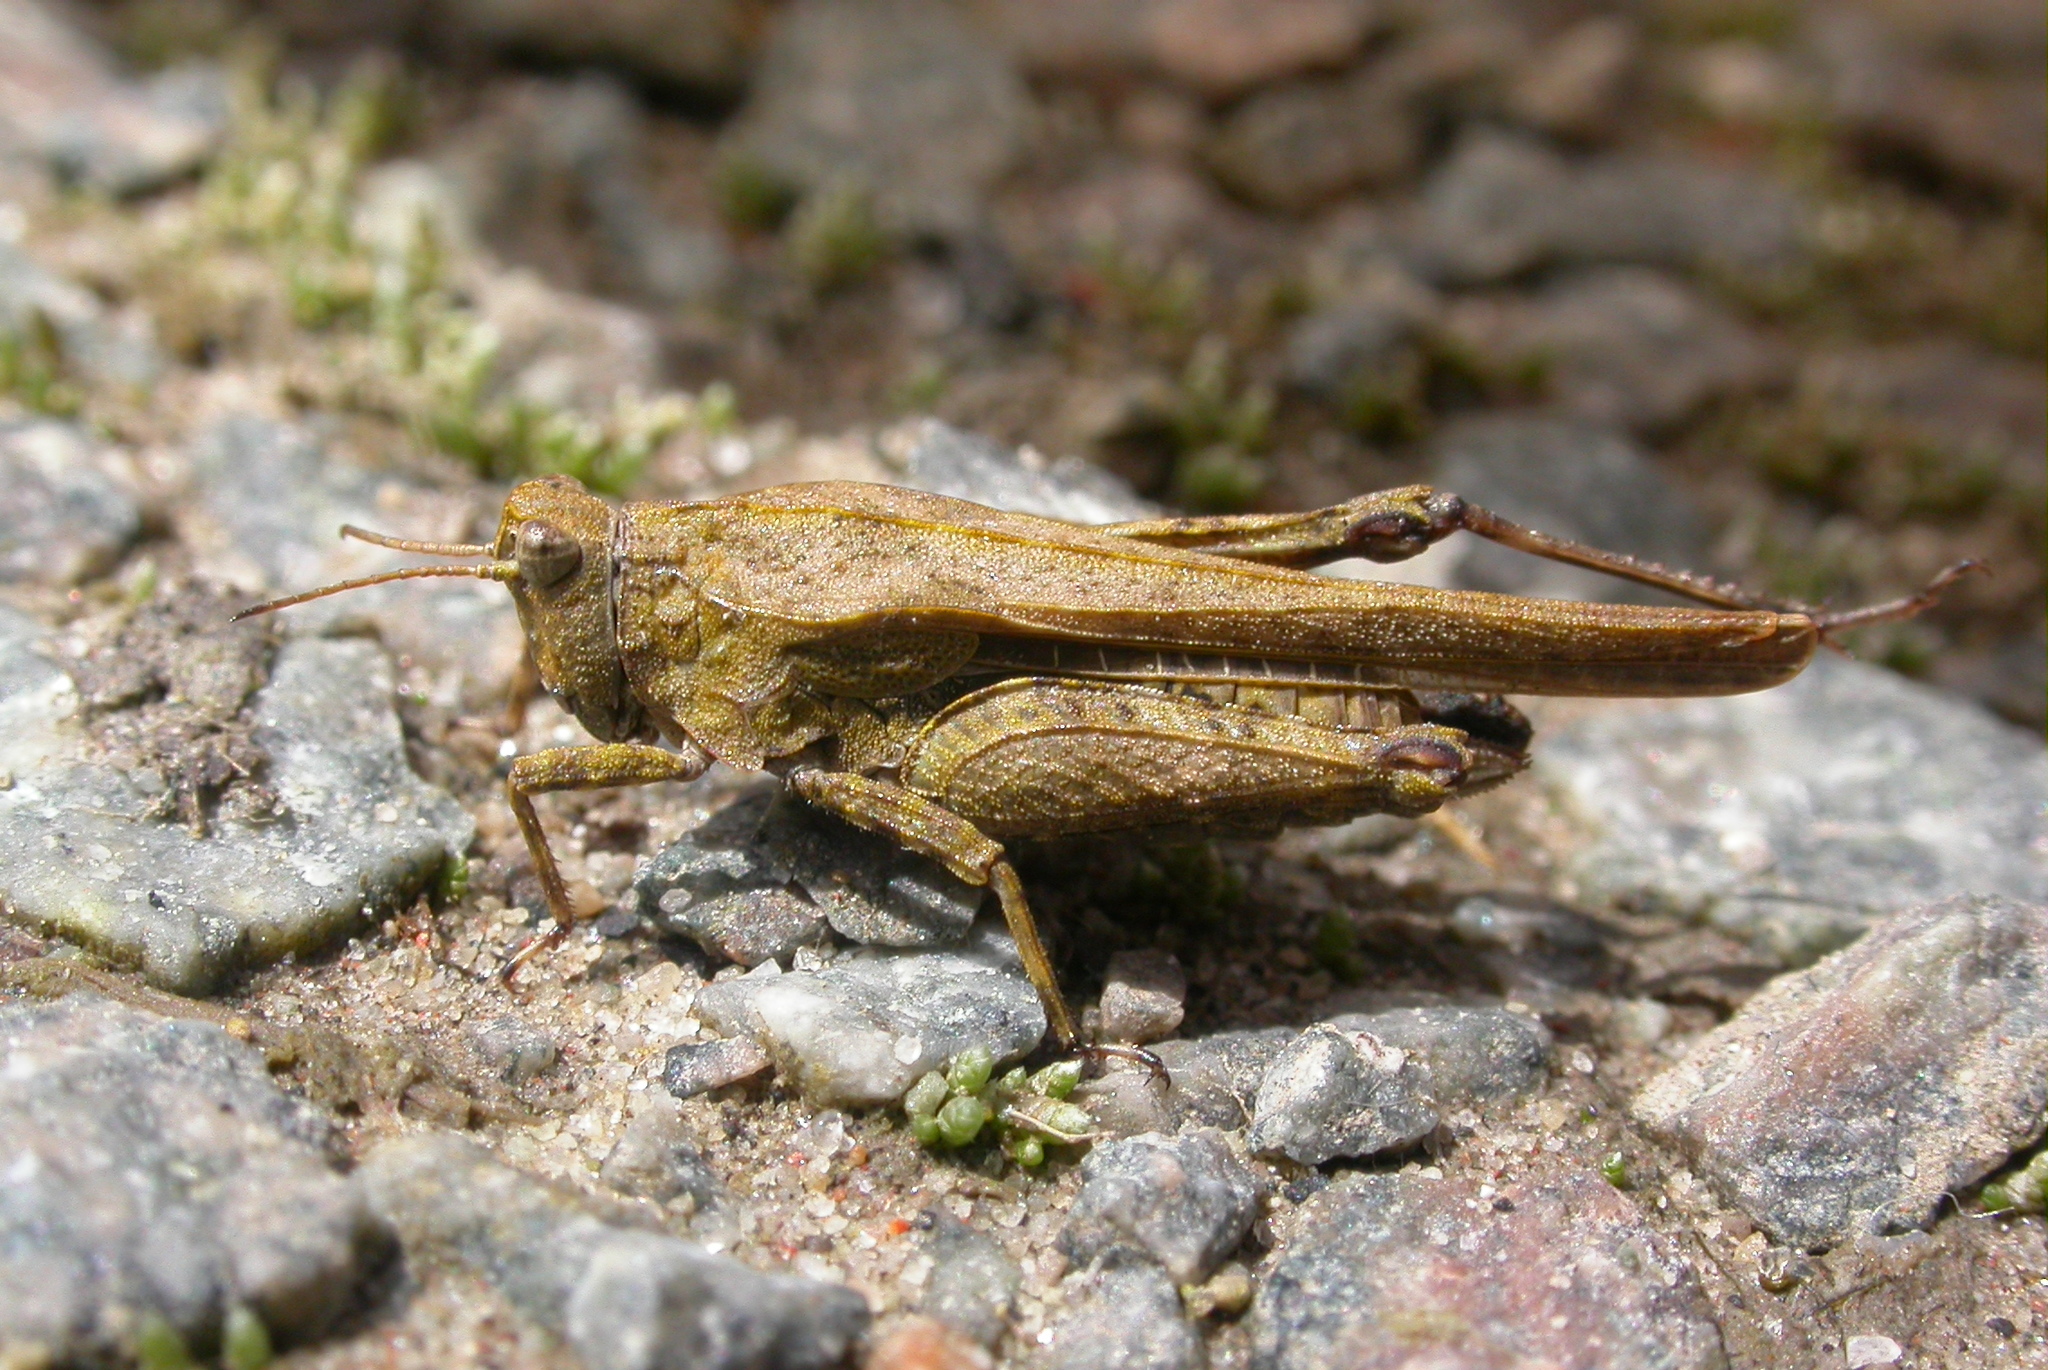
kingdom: Animalia
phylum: Arthropoda
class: Insecta
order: Orthoptera
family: Tetrigidae
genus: Tetrix
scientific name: Tetrix subulata
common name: Slender ground-hopper
